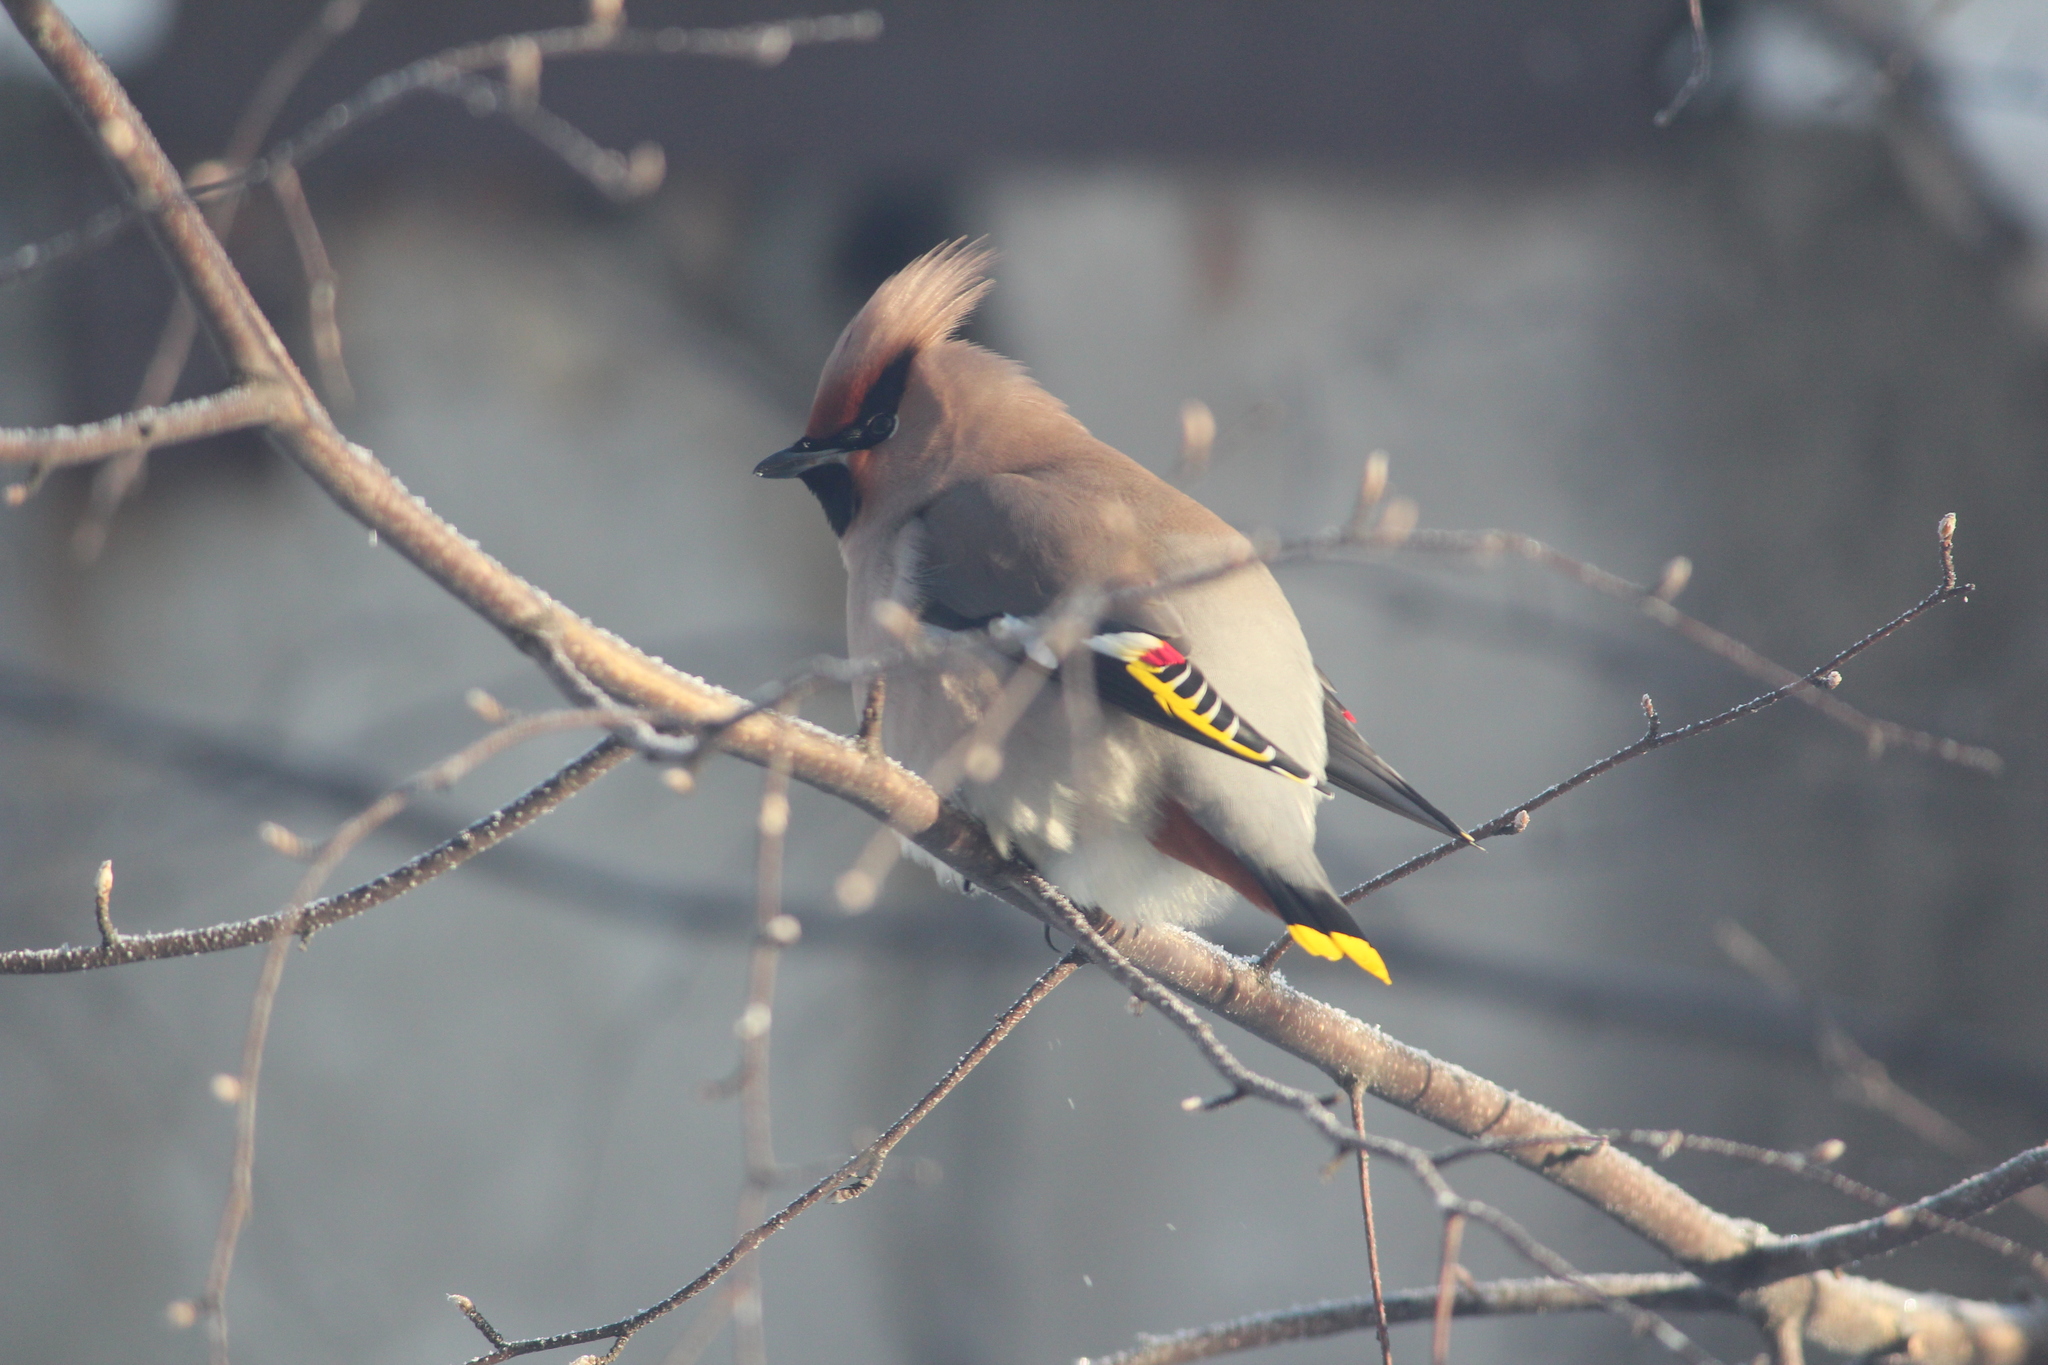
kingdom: Animalia
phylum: Chordata
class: Aves
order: Passeriformes
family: Bombycillidae
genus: Bombycilla
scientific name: Bombycilla garrulus
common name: Bohemian waxwing
